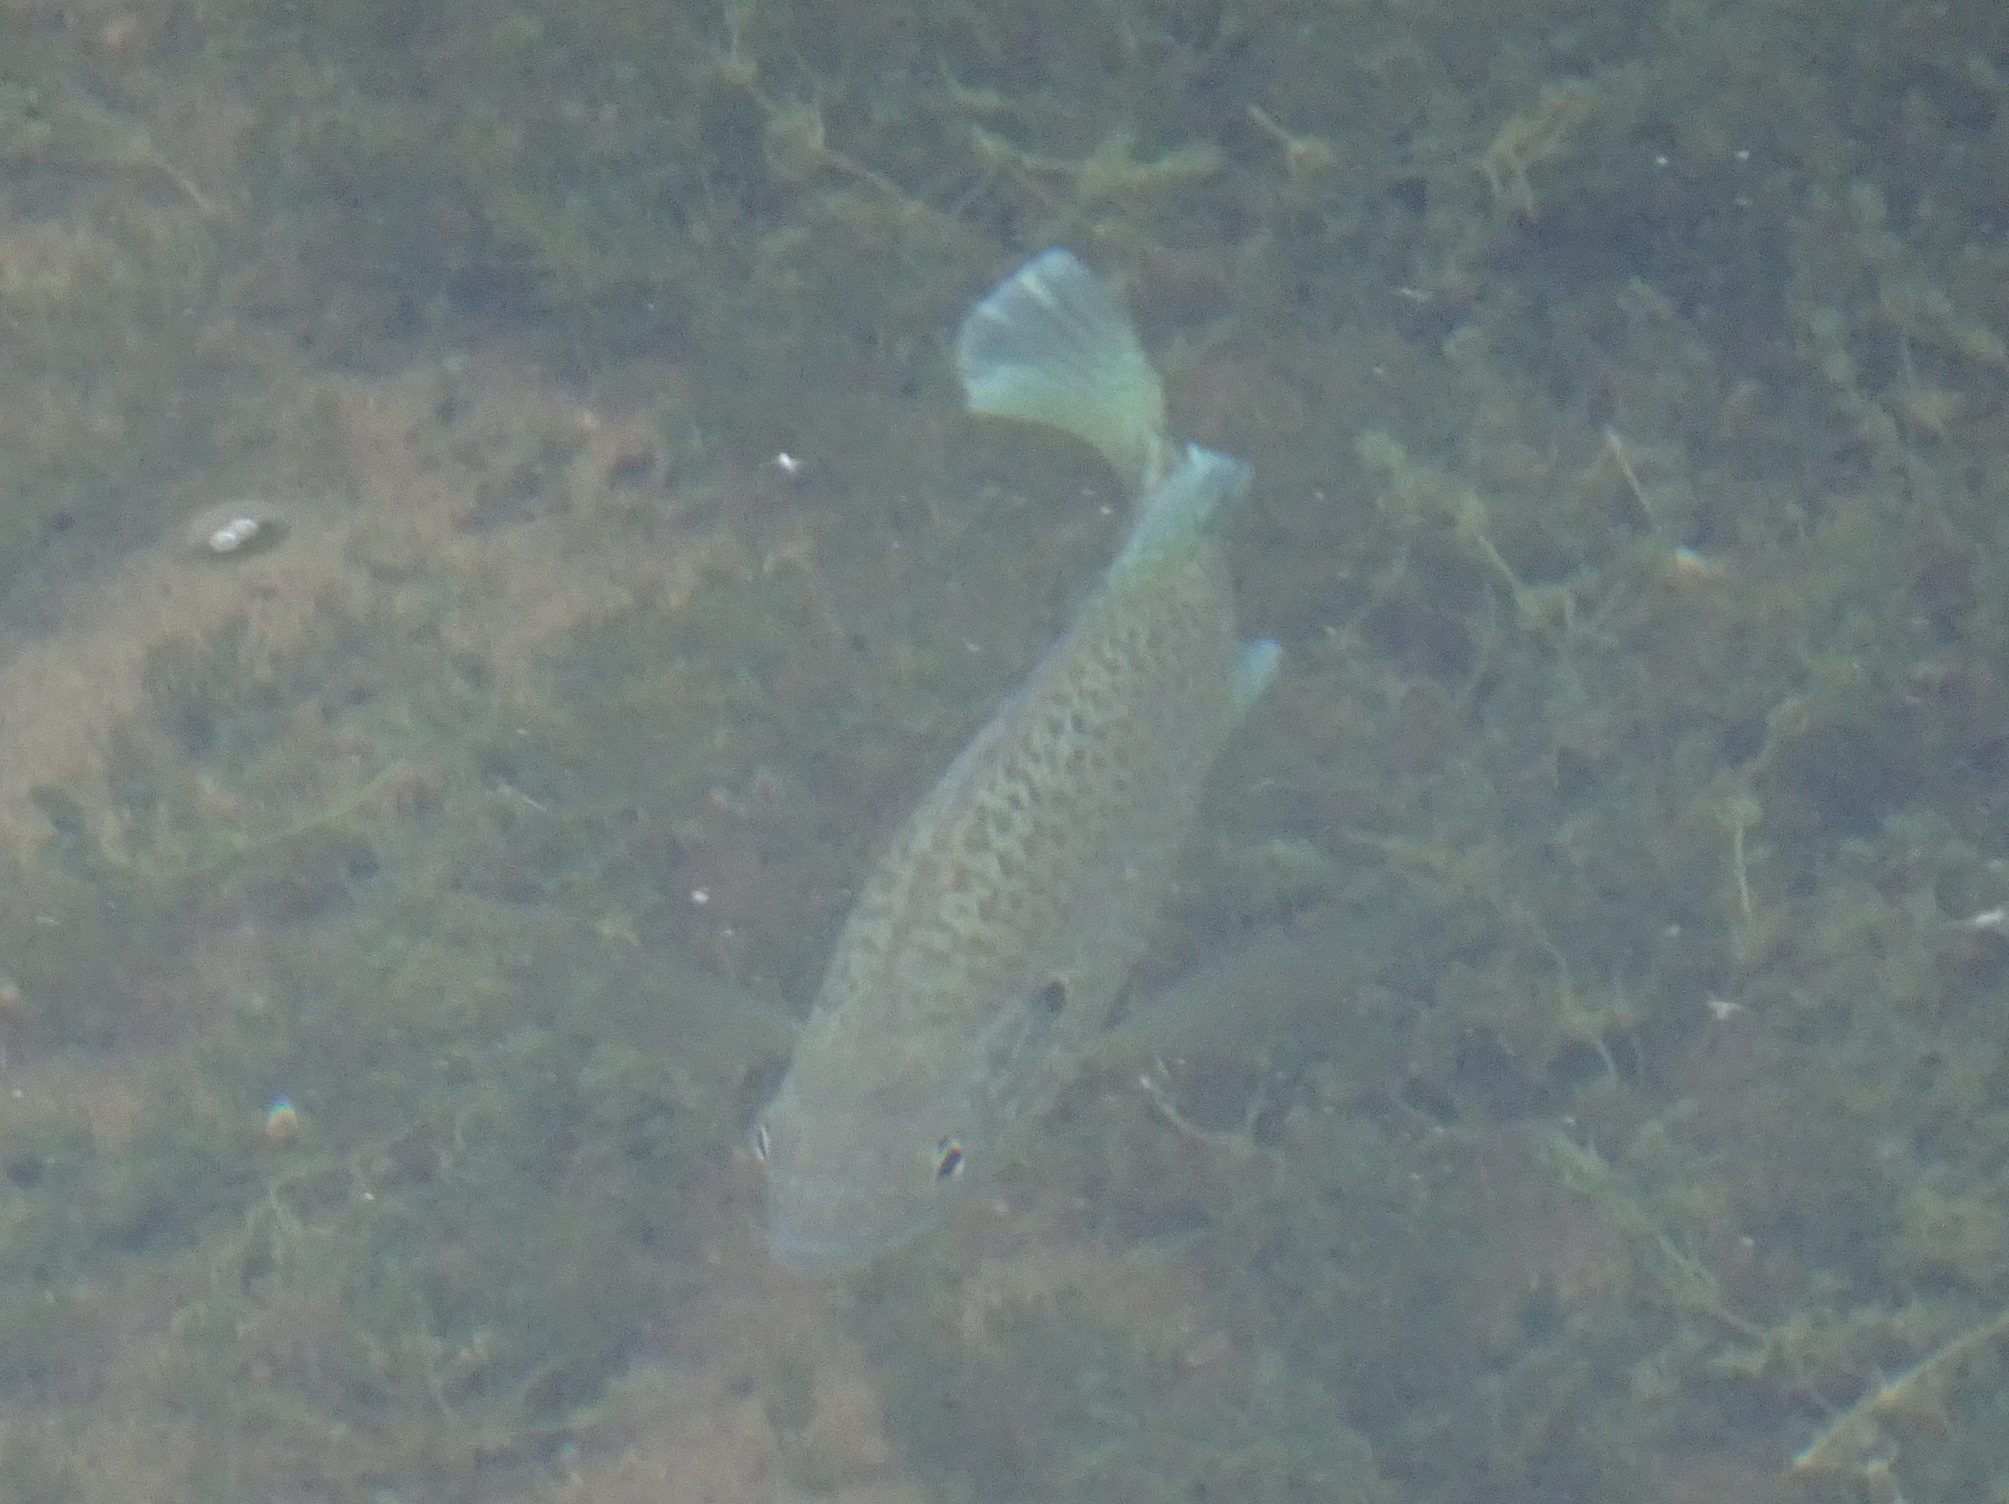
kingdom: Animalia
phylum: Chordata
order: Perciformes
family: Centrarchidae
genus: Lepomis
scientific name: Lepomis gibbosus
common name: Pumpkinseed
